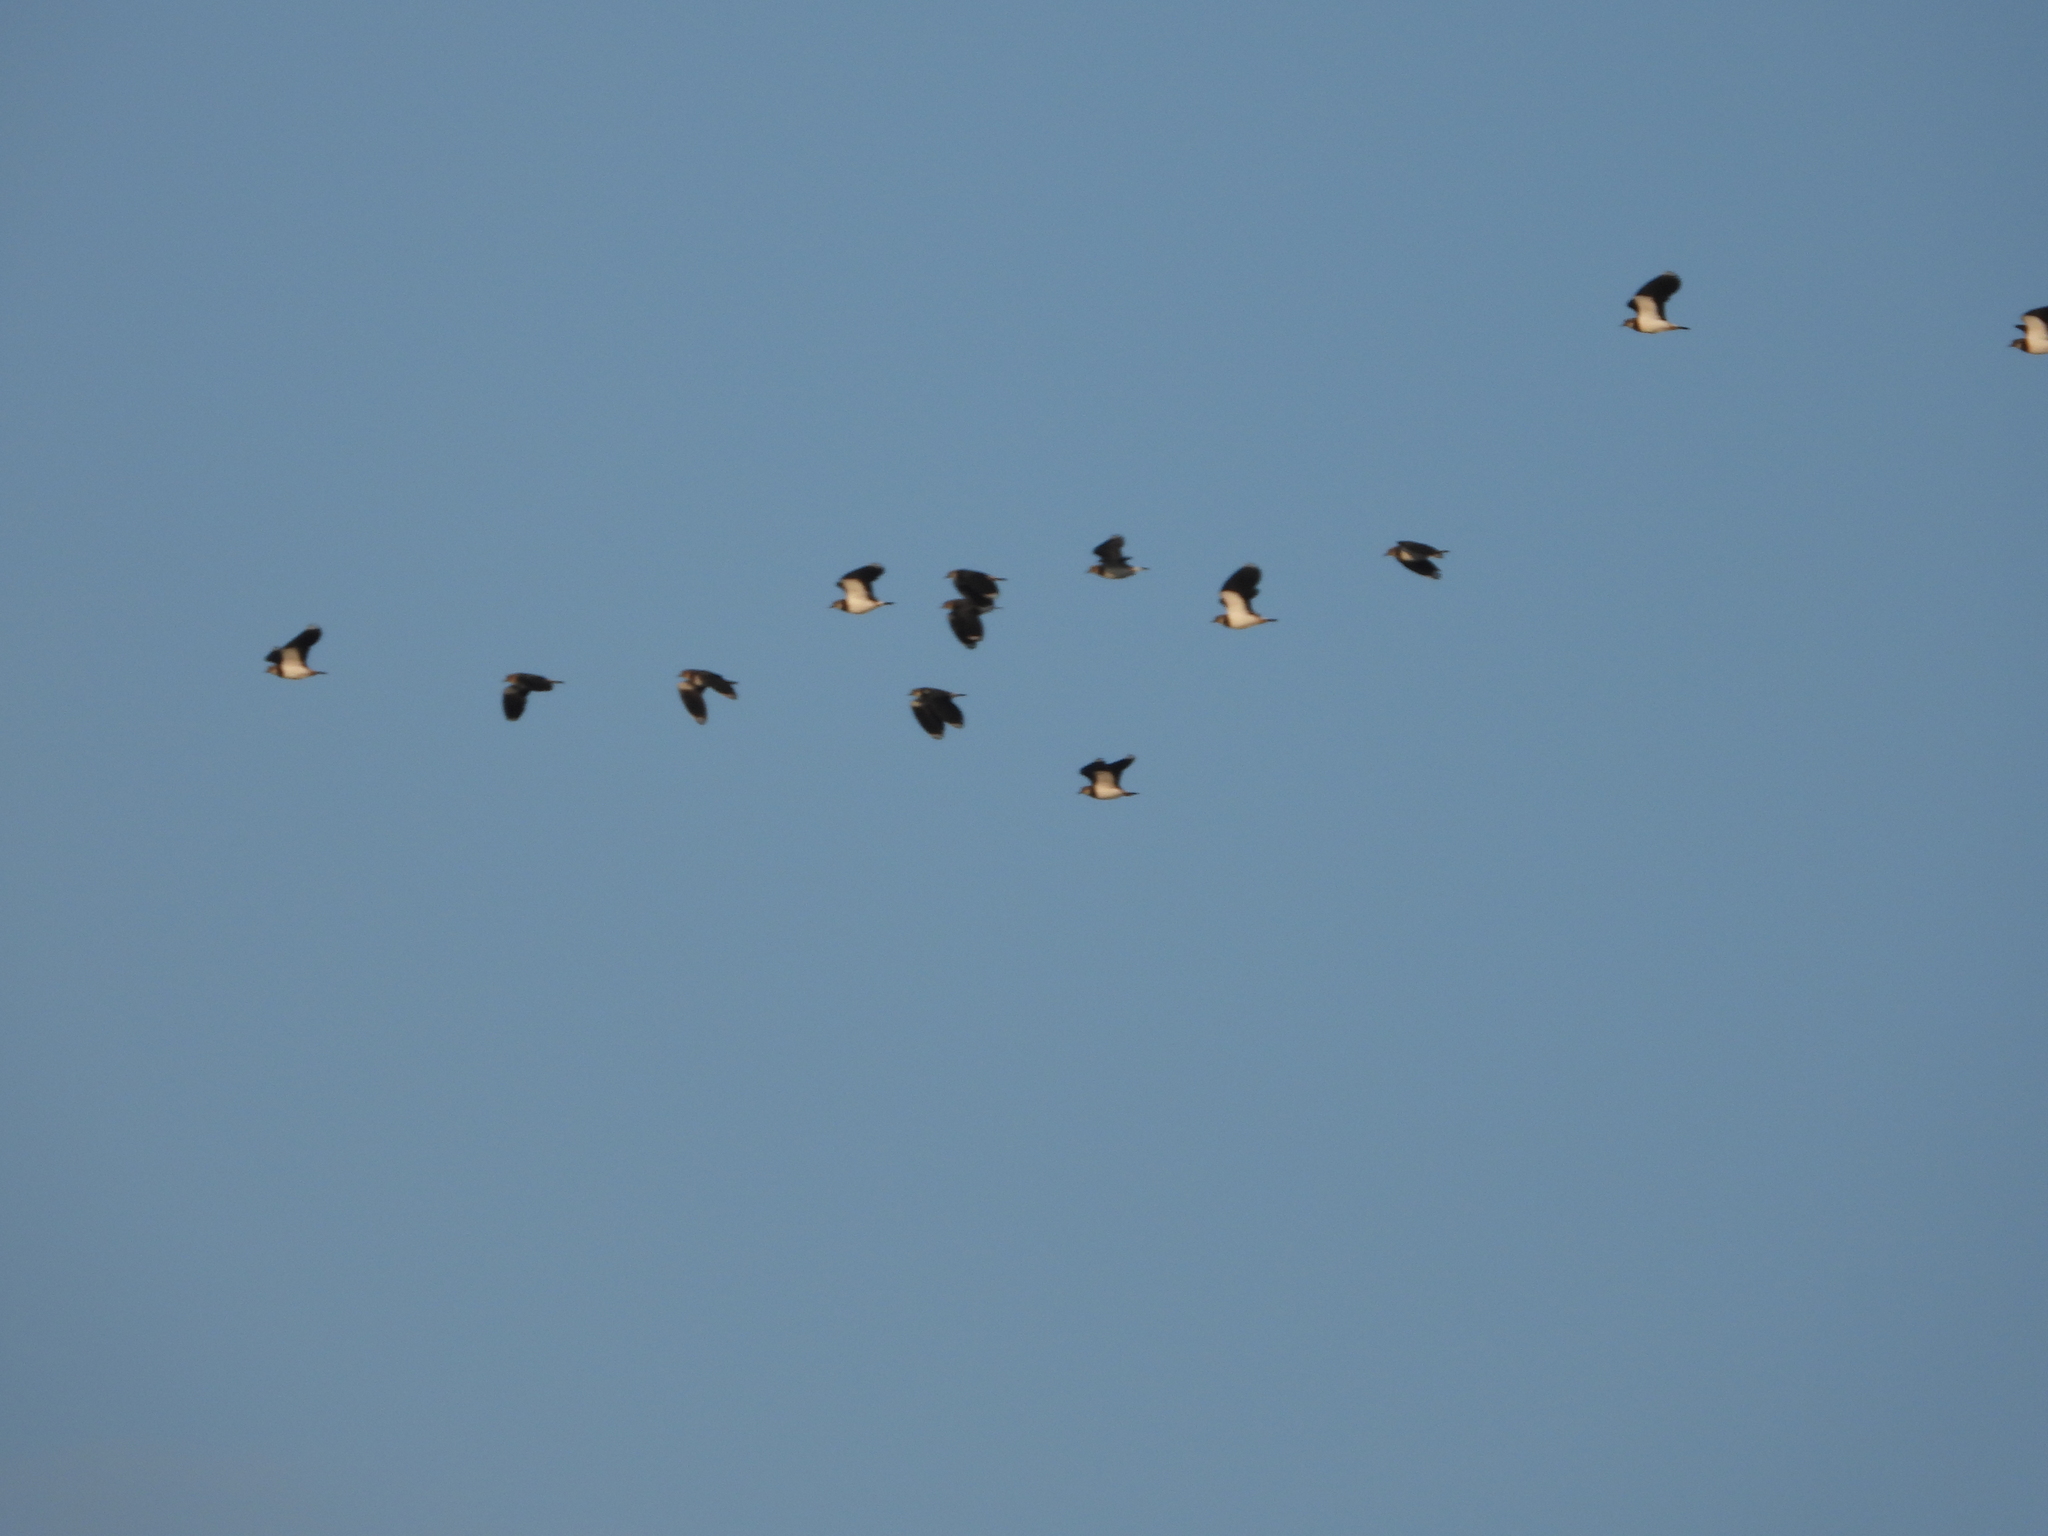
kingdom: Animalia
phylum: Chordata
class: Aves
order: Charadriiformes
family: Charadriidae
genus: Vanellus
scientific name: Vanellus vanellus
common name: Northern lapwing
